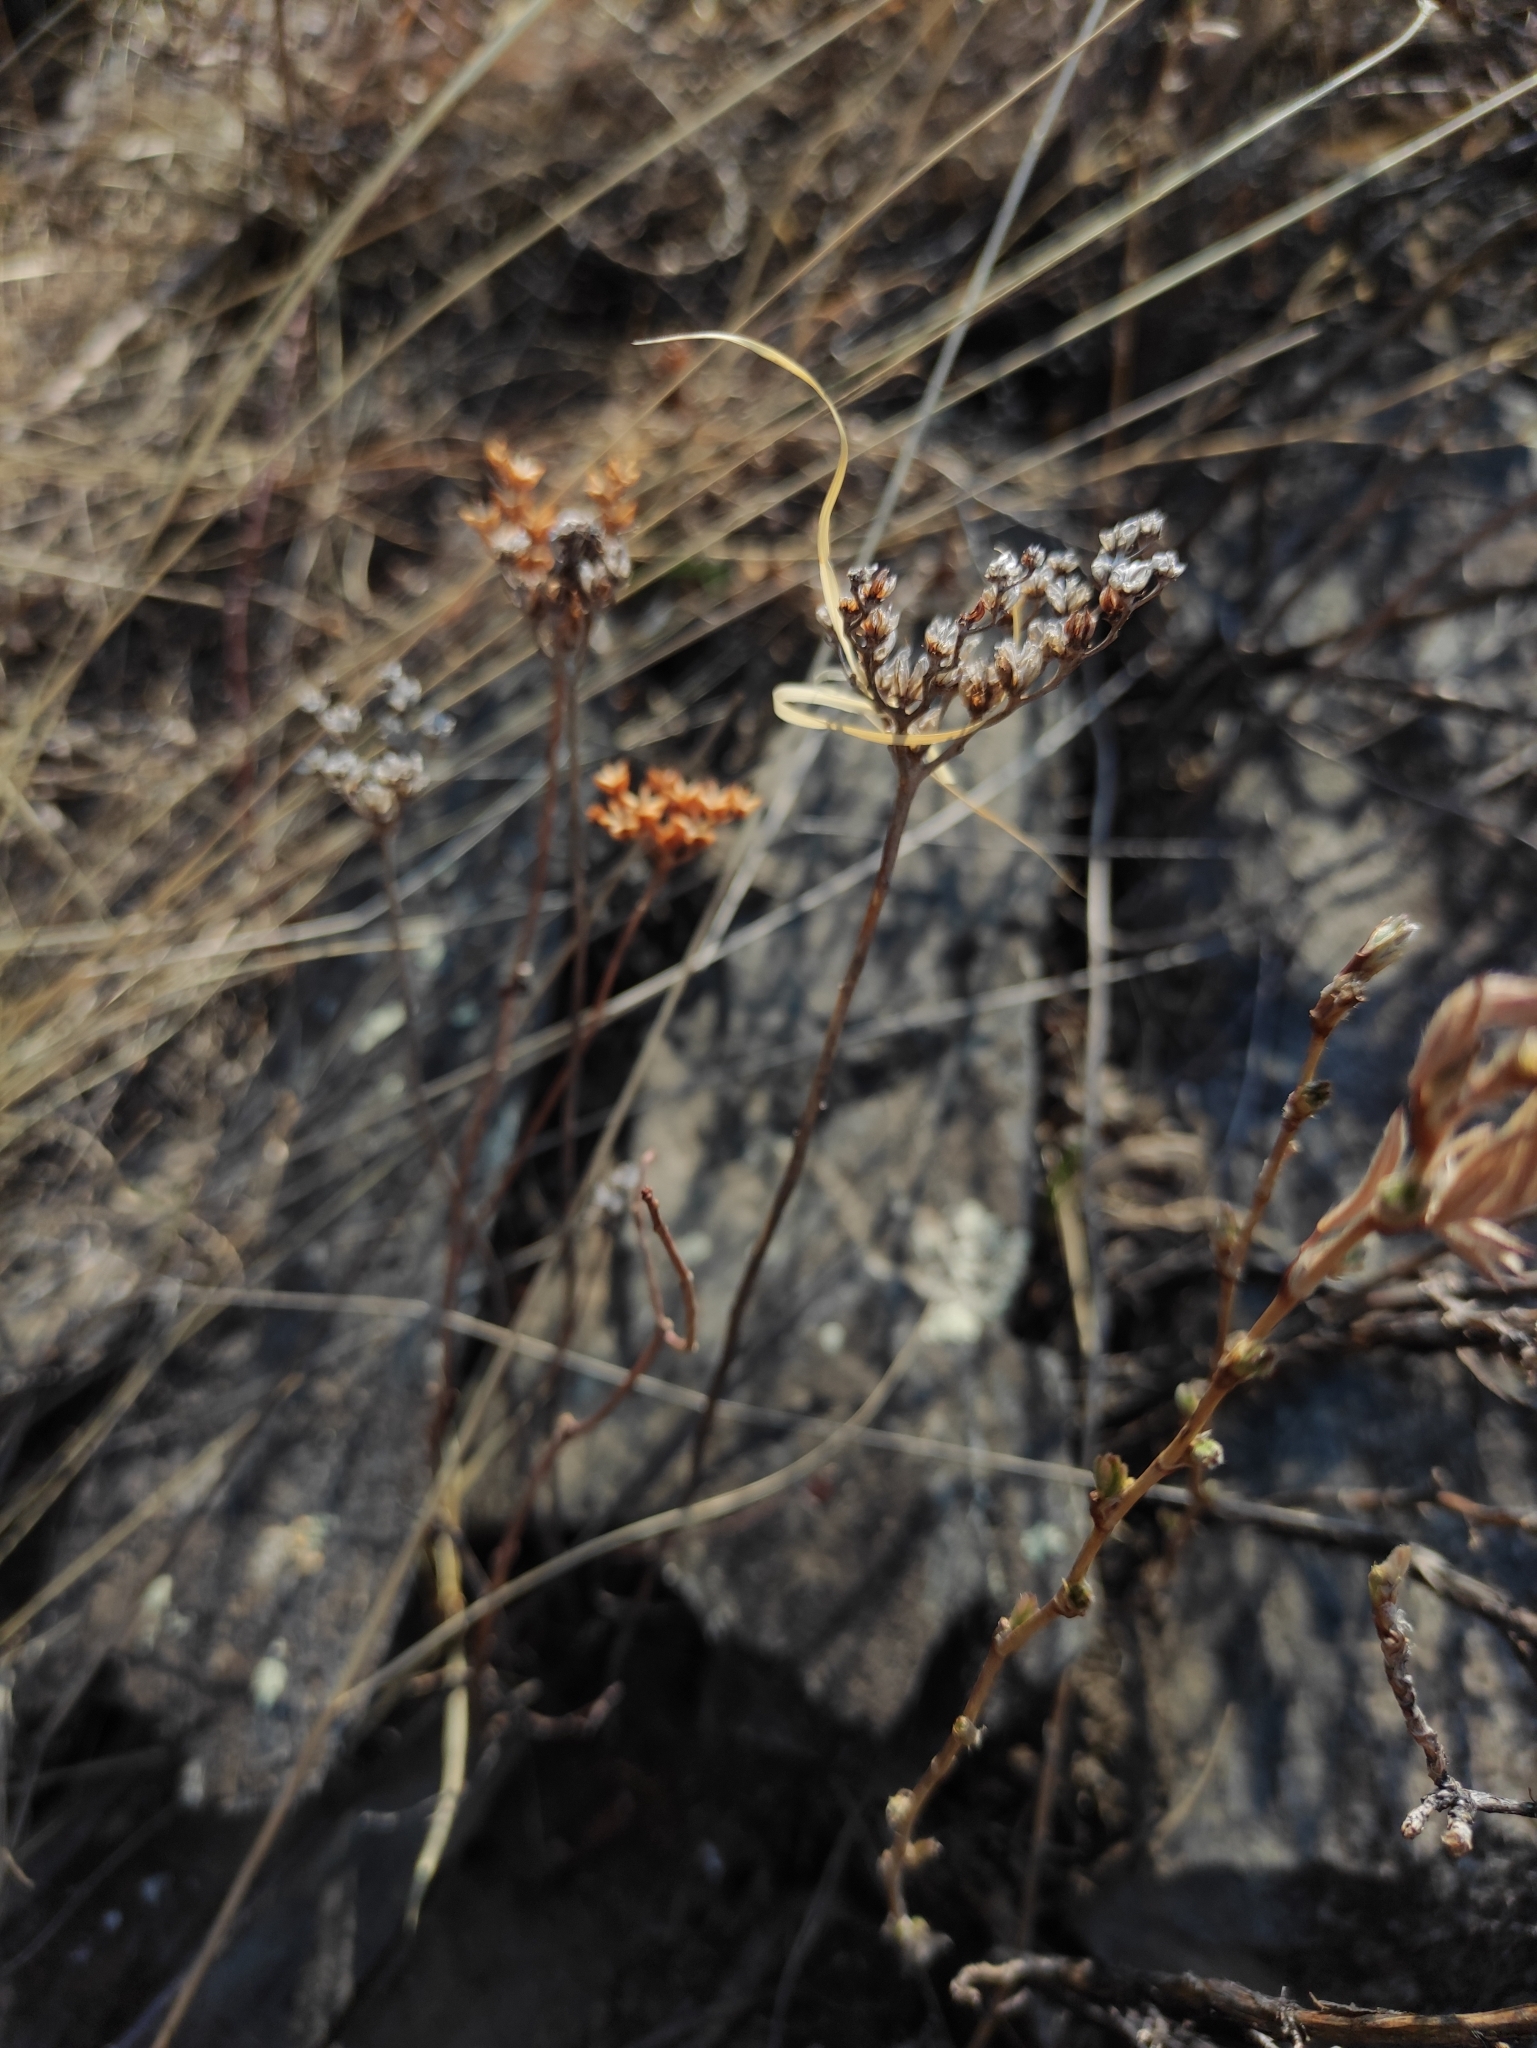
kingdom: Plantae
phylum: Tracheophyta
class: Magnoliopsida
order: Saxifragales
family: Crassulaceae
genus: Phedimus
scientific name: Phedimus aizoon
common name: Orpin aizoon
